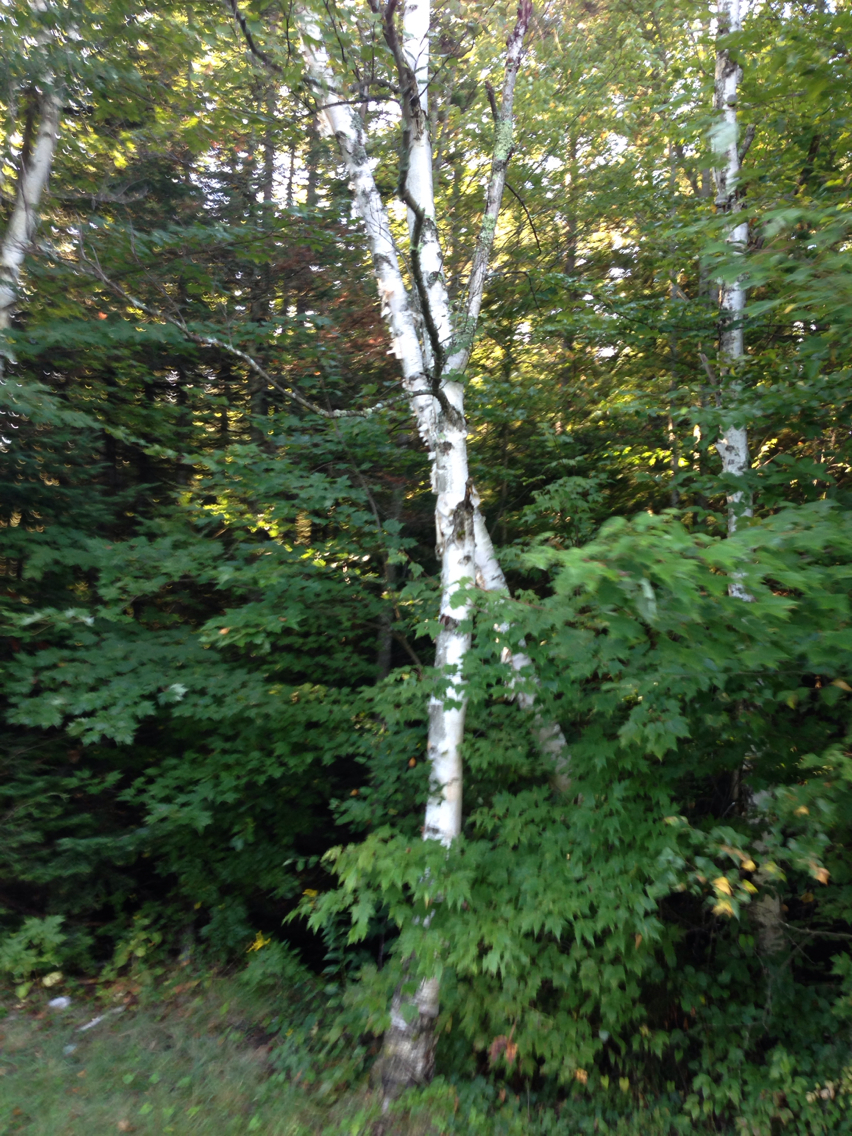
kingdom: Plantae
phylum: Tracheophyta
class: Magnoliopsida
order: Fagales
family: Betulaceae
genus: Betula
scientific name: Betula papyrifera
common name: Paper birch
